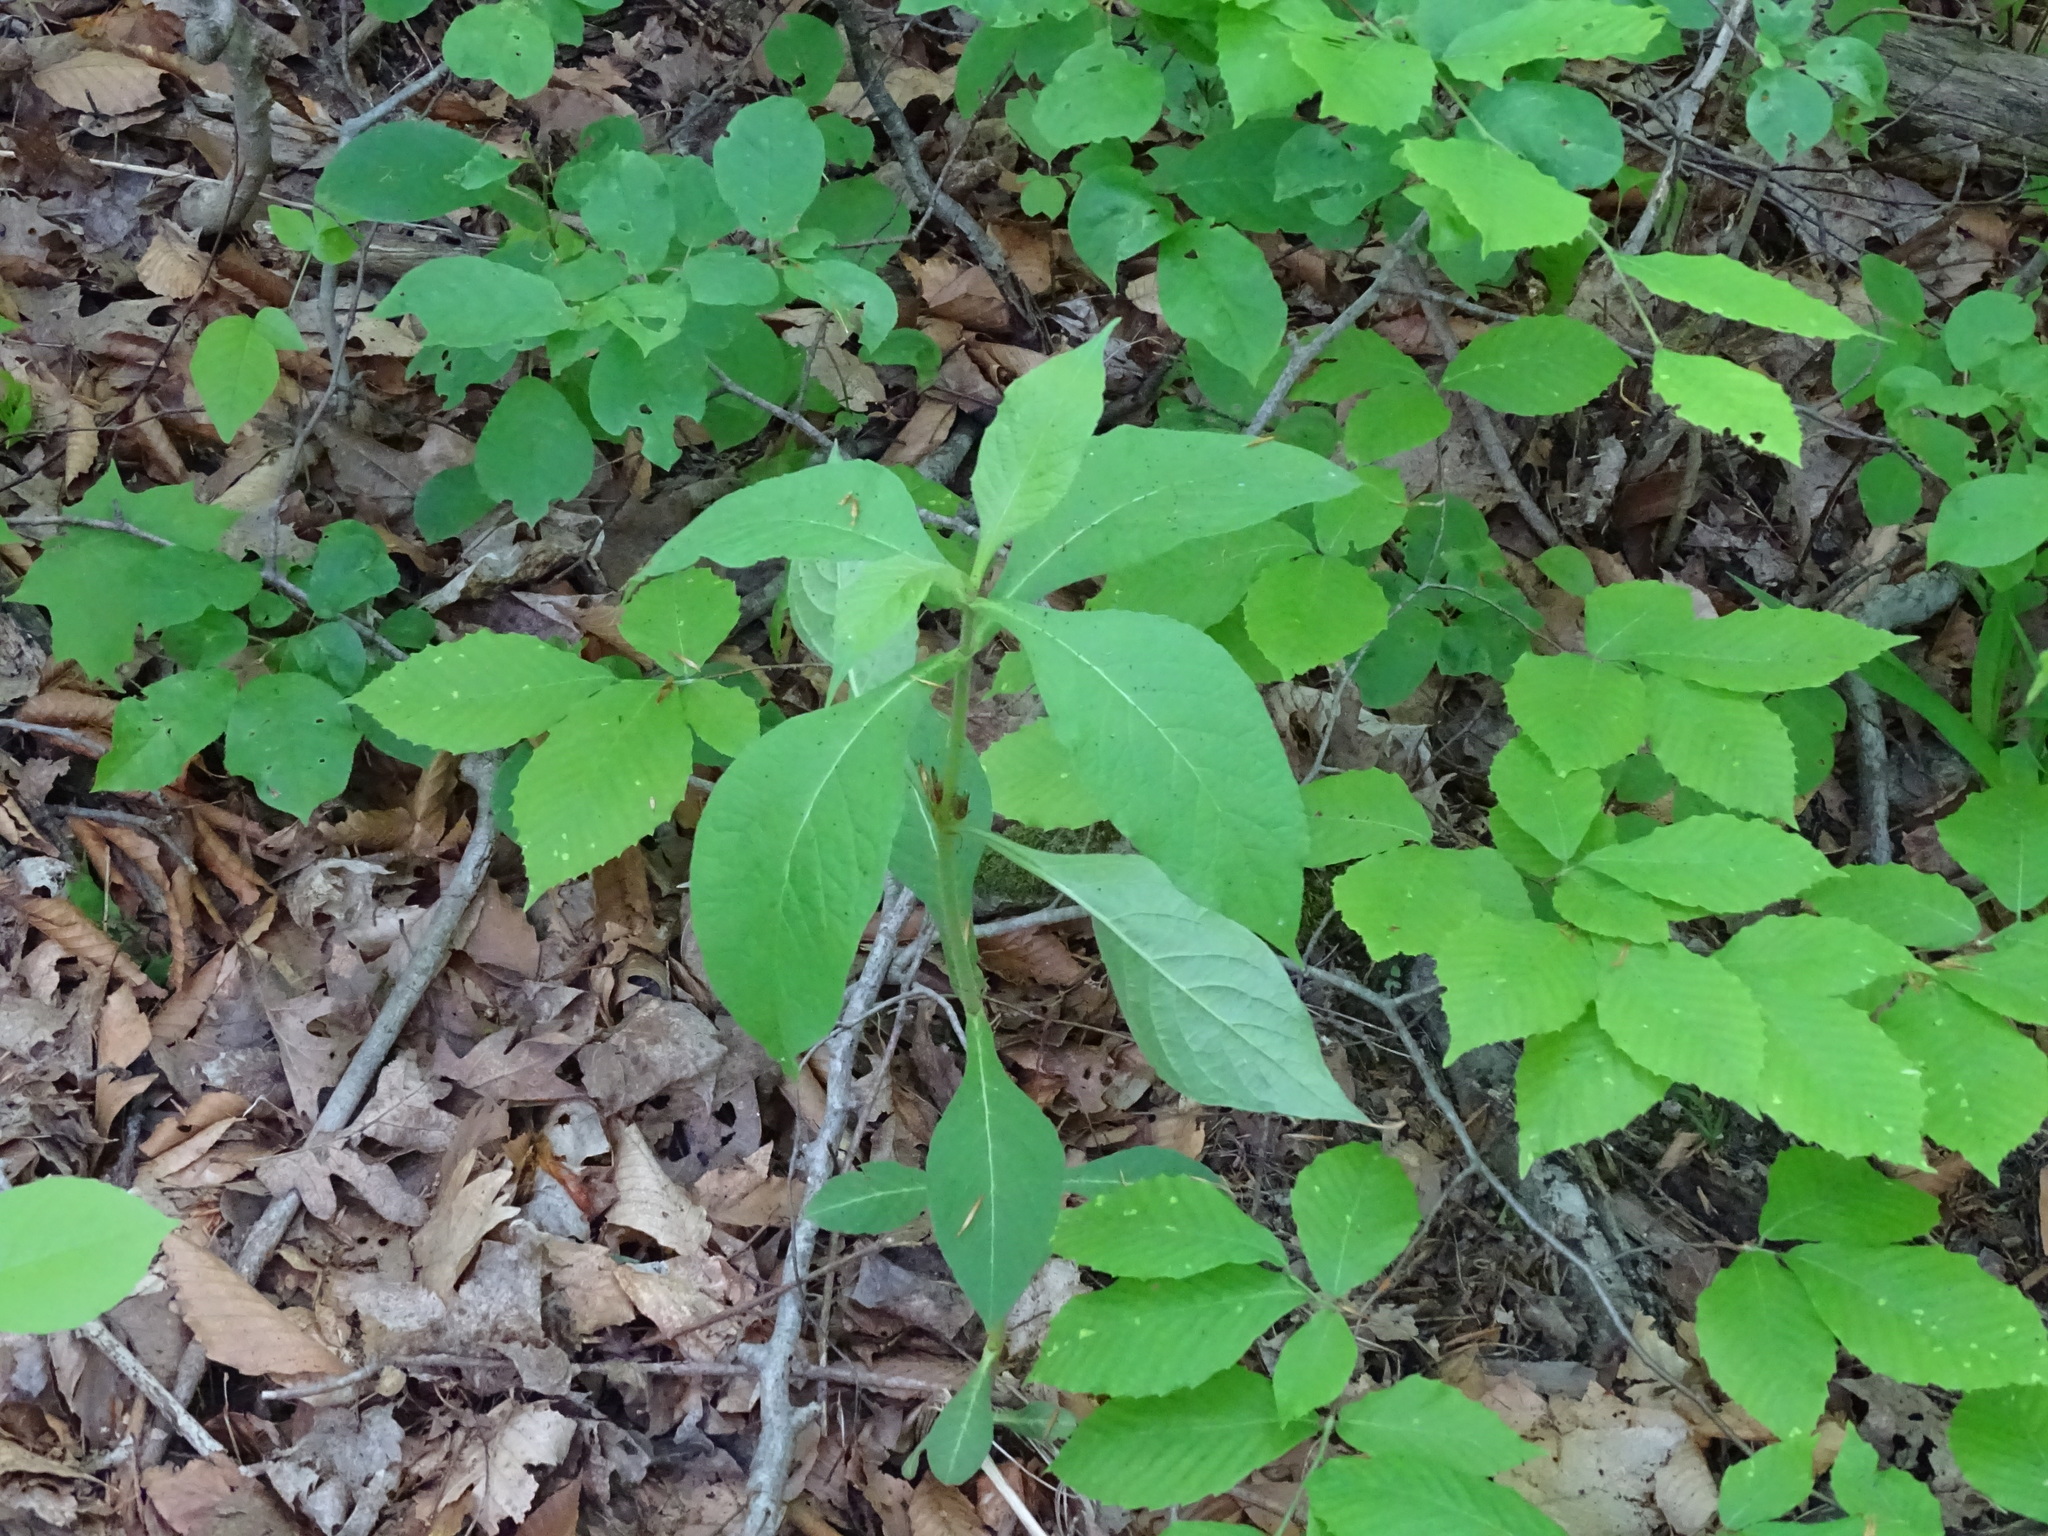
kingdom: Plantae
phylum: Tracheophyta
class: Magnoliopsida
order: Dipsacales
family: Caprifoliaceae
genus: Triosteum
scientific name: Triosteum aurantiacum
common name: Coffee tinker's-weed
